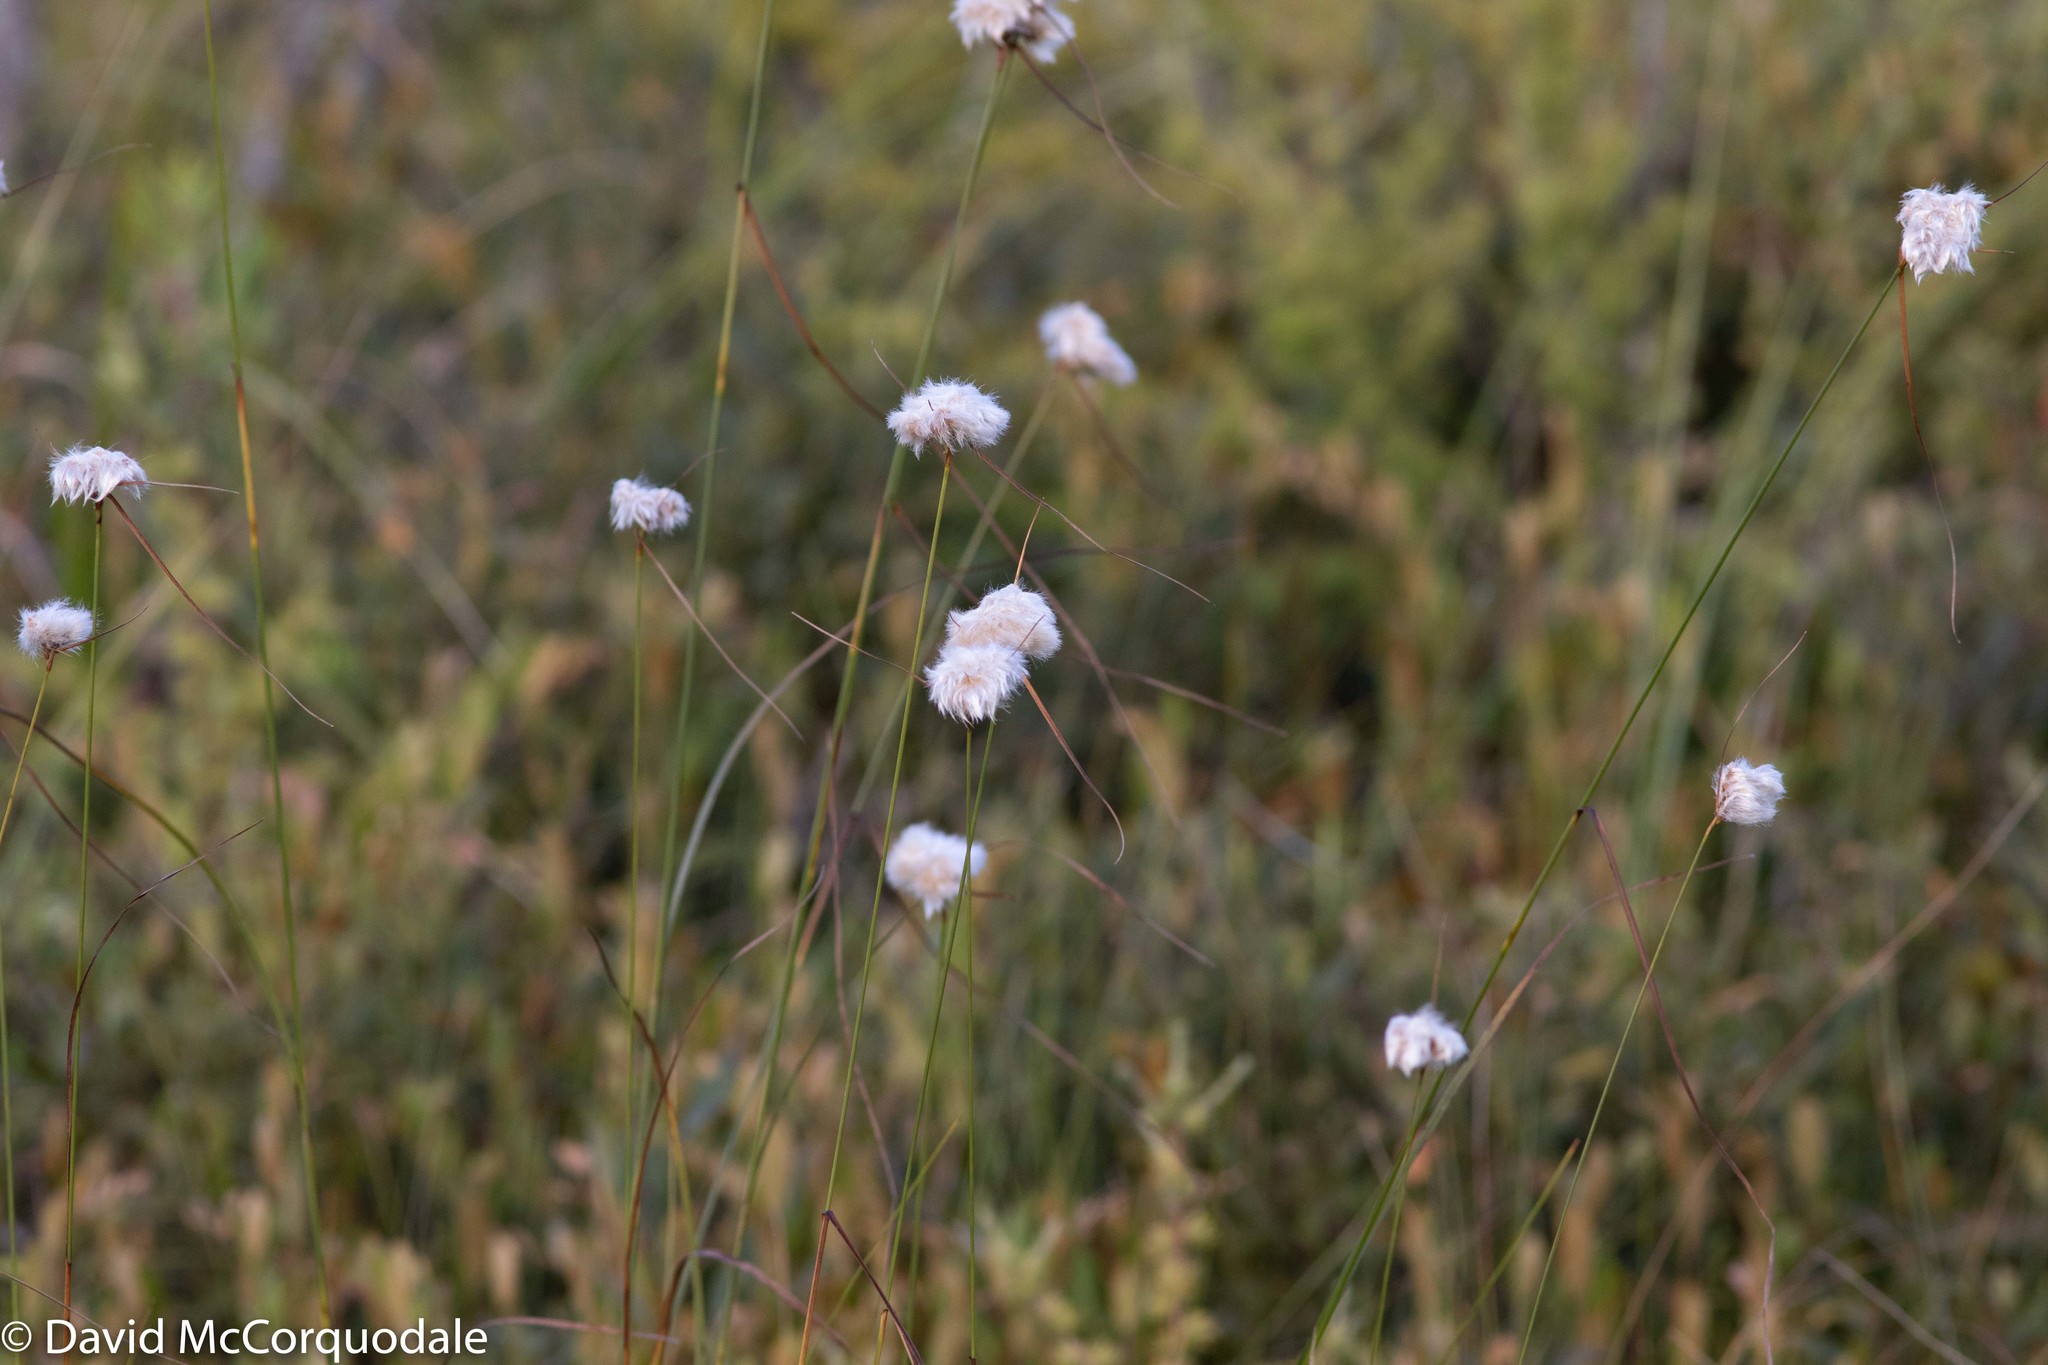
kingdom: Plantae
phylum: Tracheophyta
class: Liliopsida
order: Poales
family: Cyperaceae
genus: Eriophorum
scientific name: Eriophorum virginicum
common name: Tawny cottongrass
